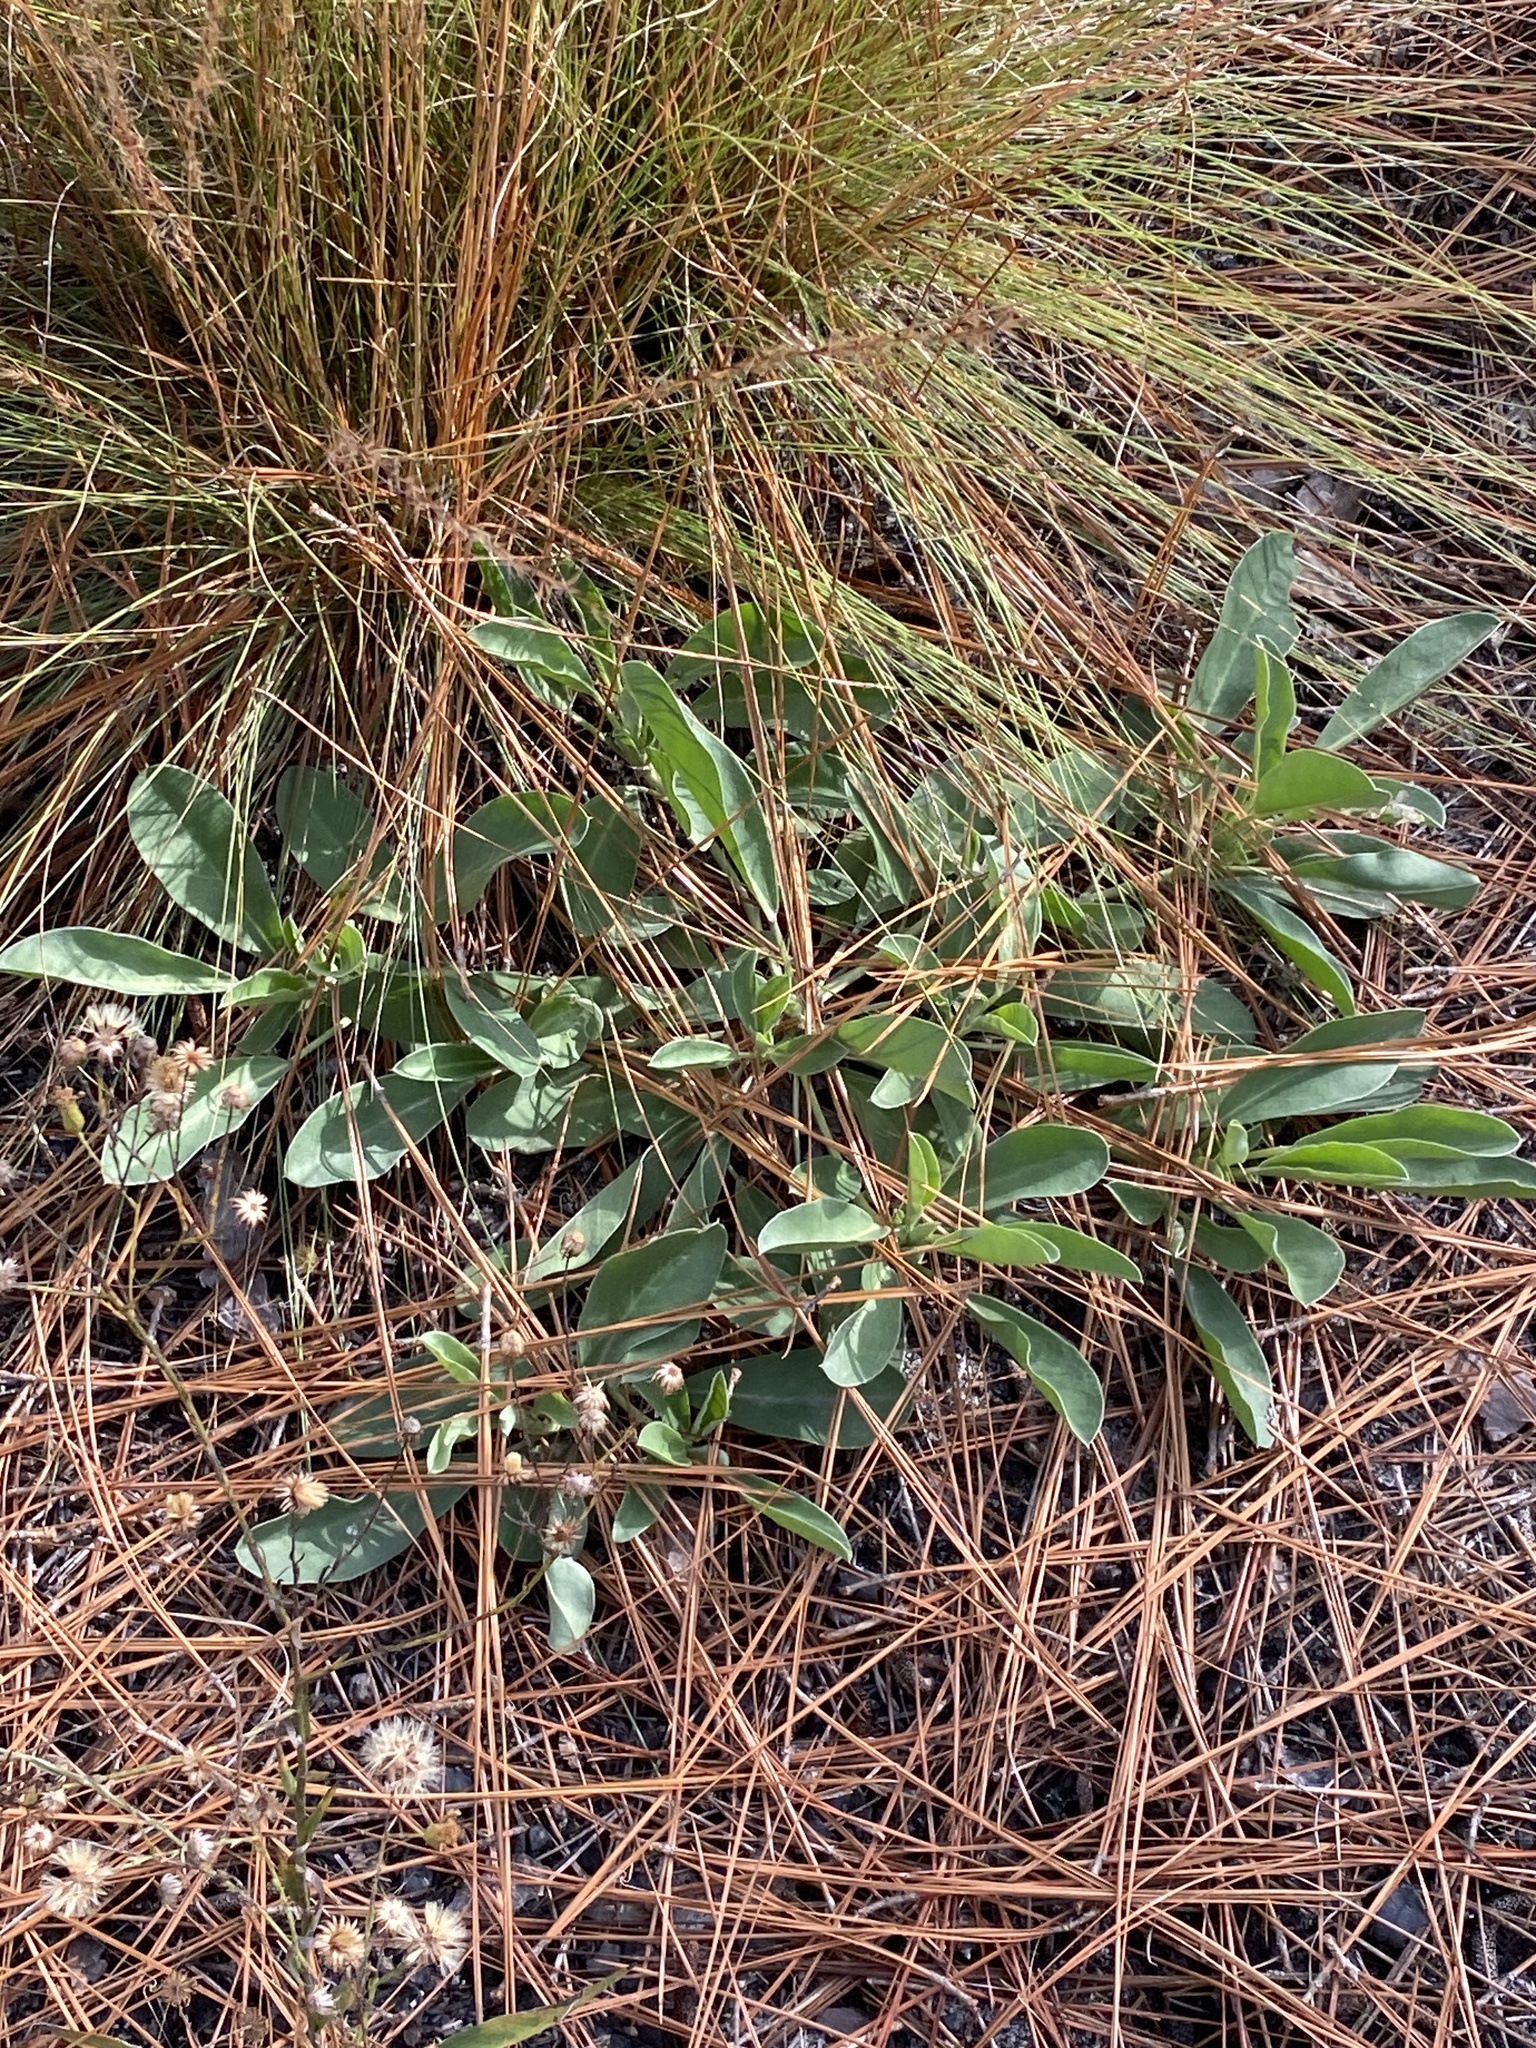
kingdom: Plantae
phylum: Tracheophyta
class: Magnoliopsida
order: Fabales
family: Fabaceae
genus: Lupinus
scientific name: Lupinus diffusus
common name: Oak ridge lupine
